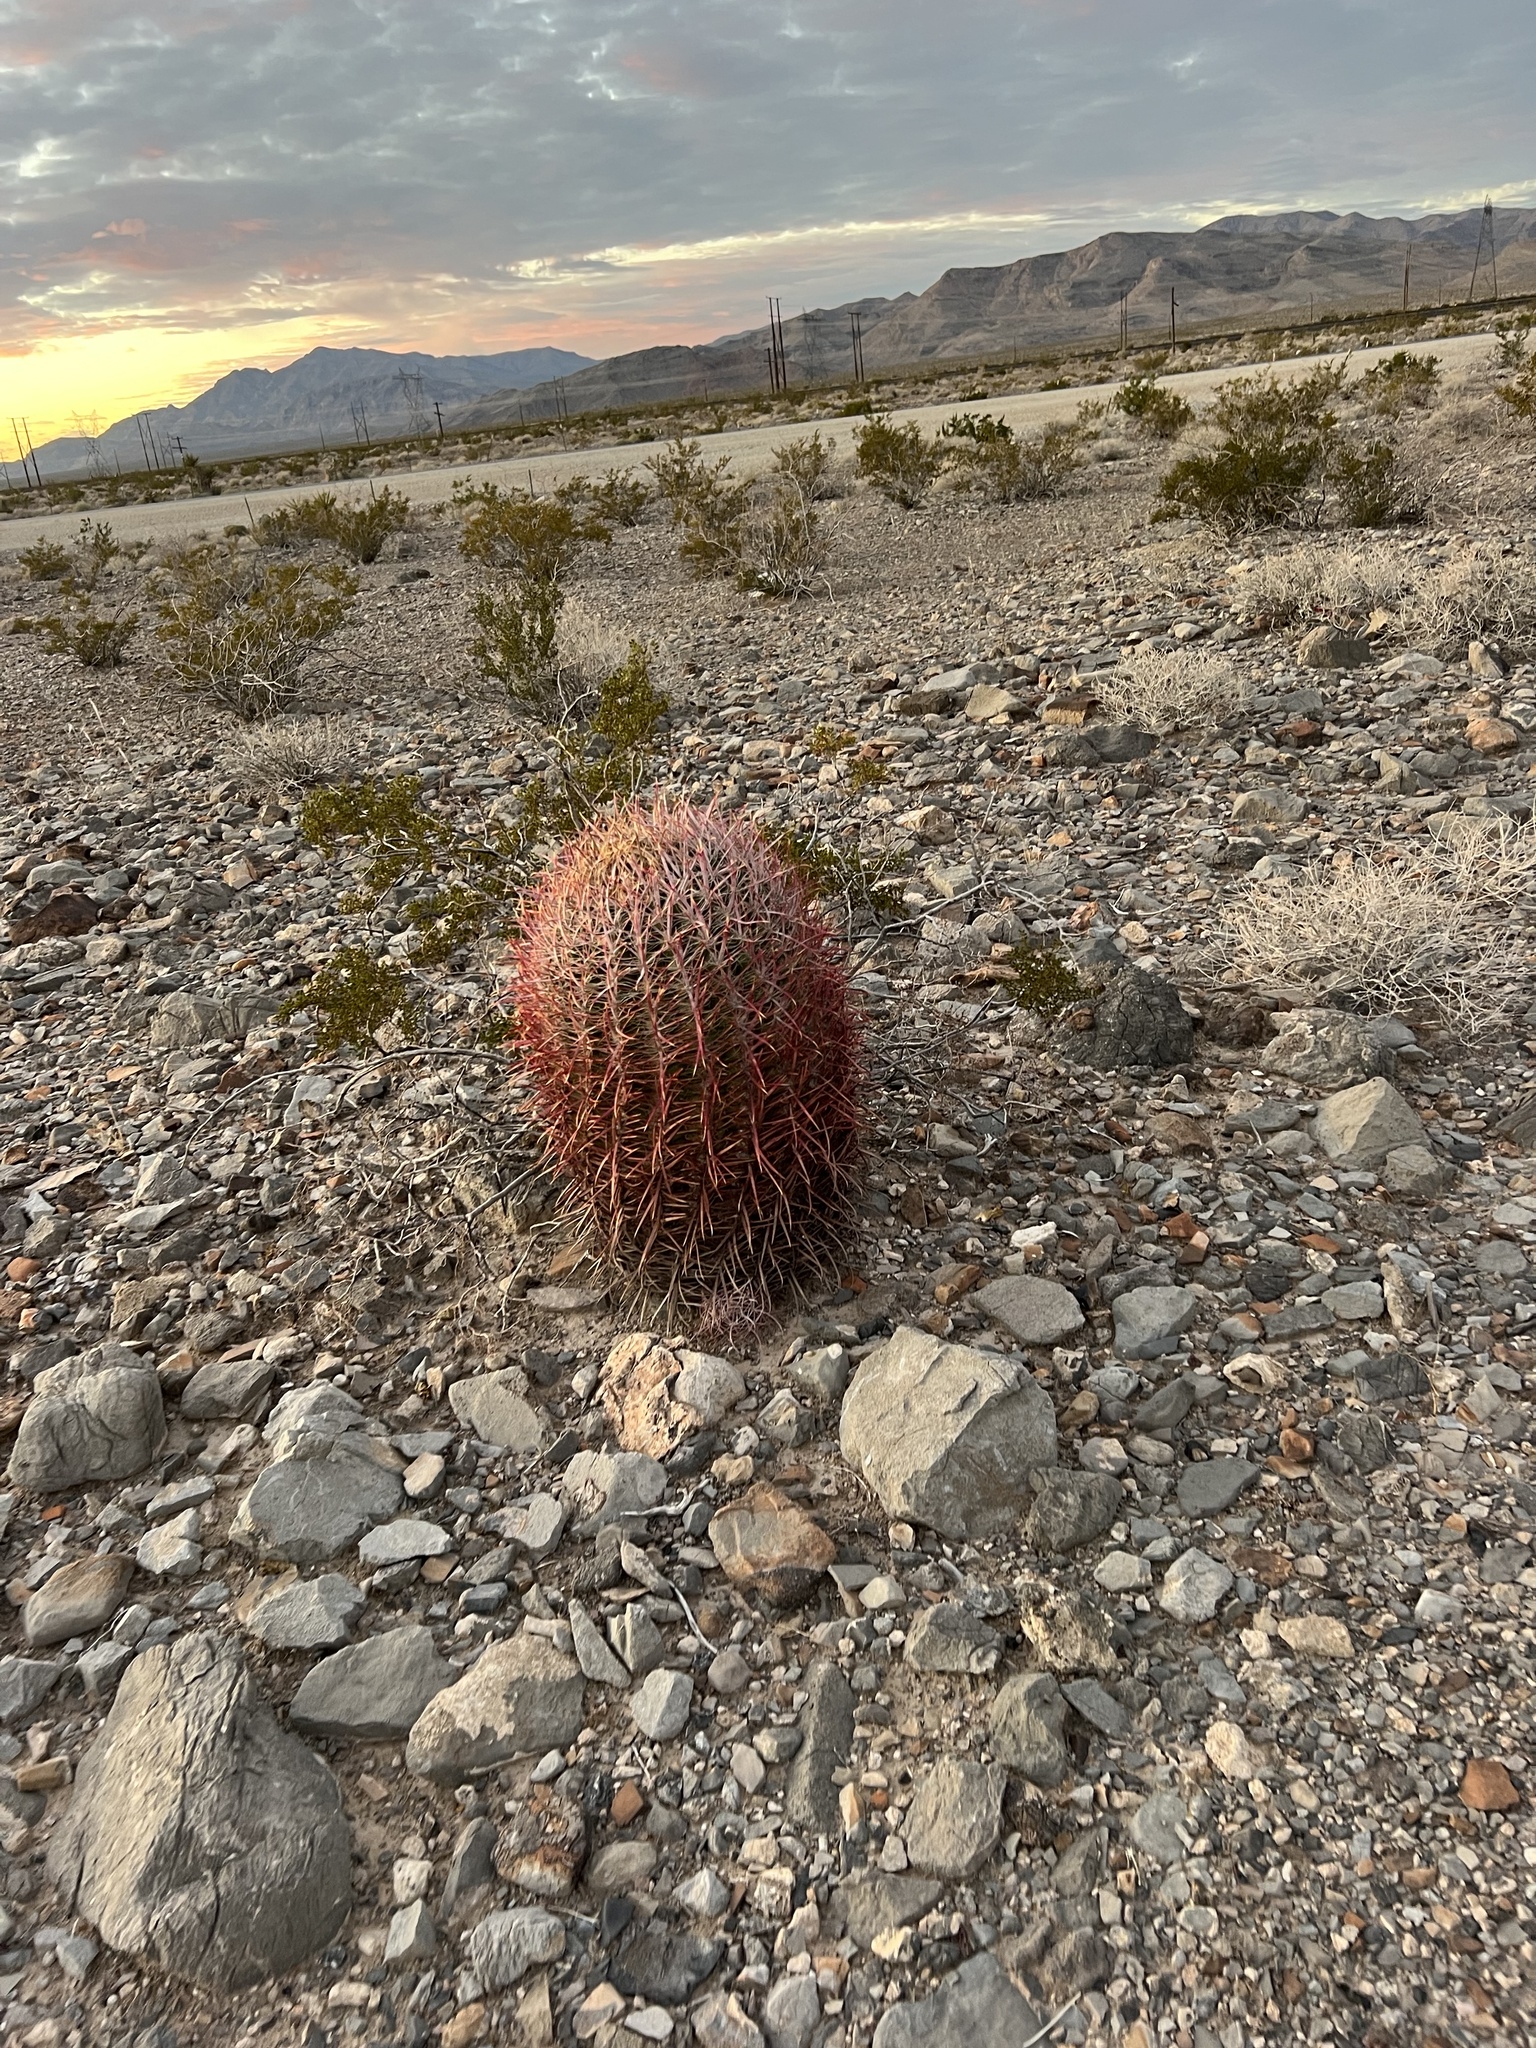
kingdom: Plantae
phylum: Tracheophyta
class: Magnoliopsida
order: Caryophyllales
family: Cactaceae
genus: Ferocactus
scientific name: Ferocactus cylindraceus
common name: California barrel cactus
